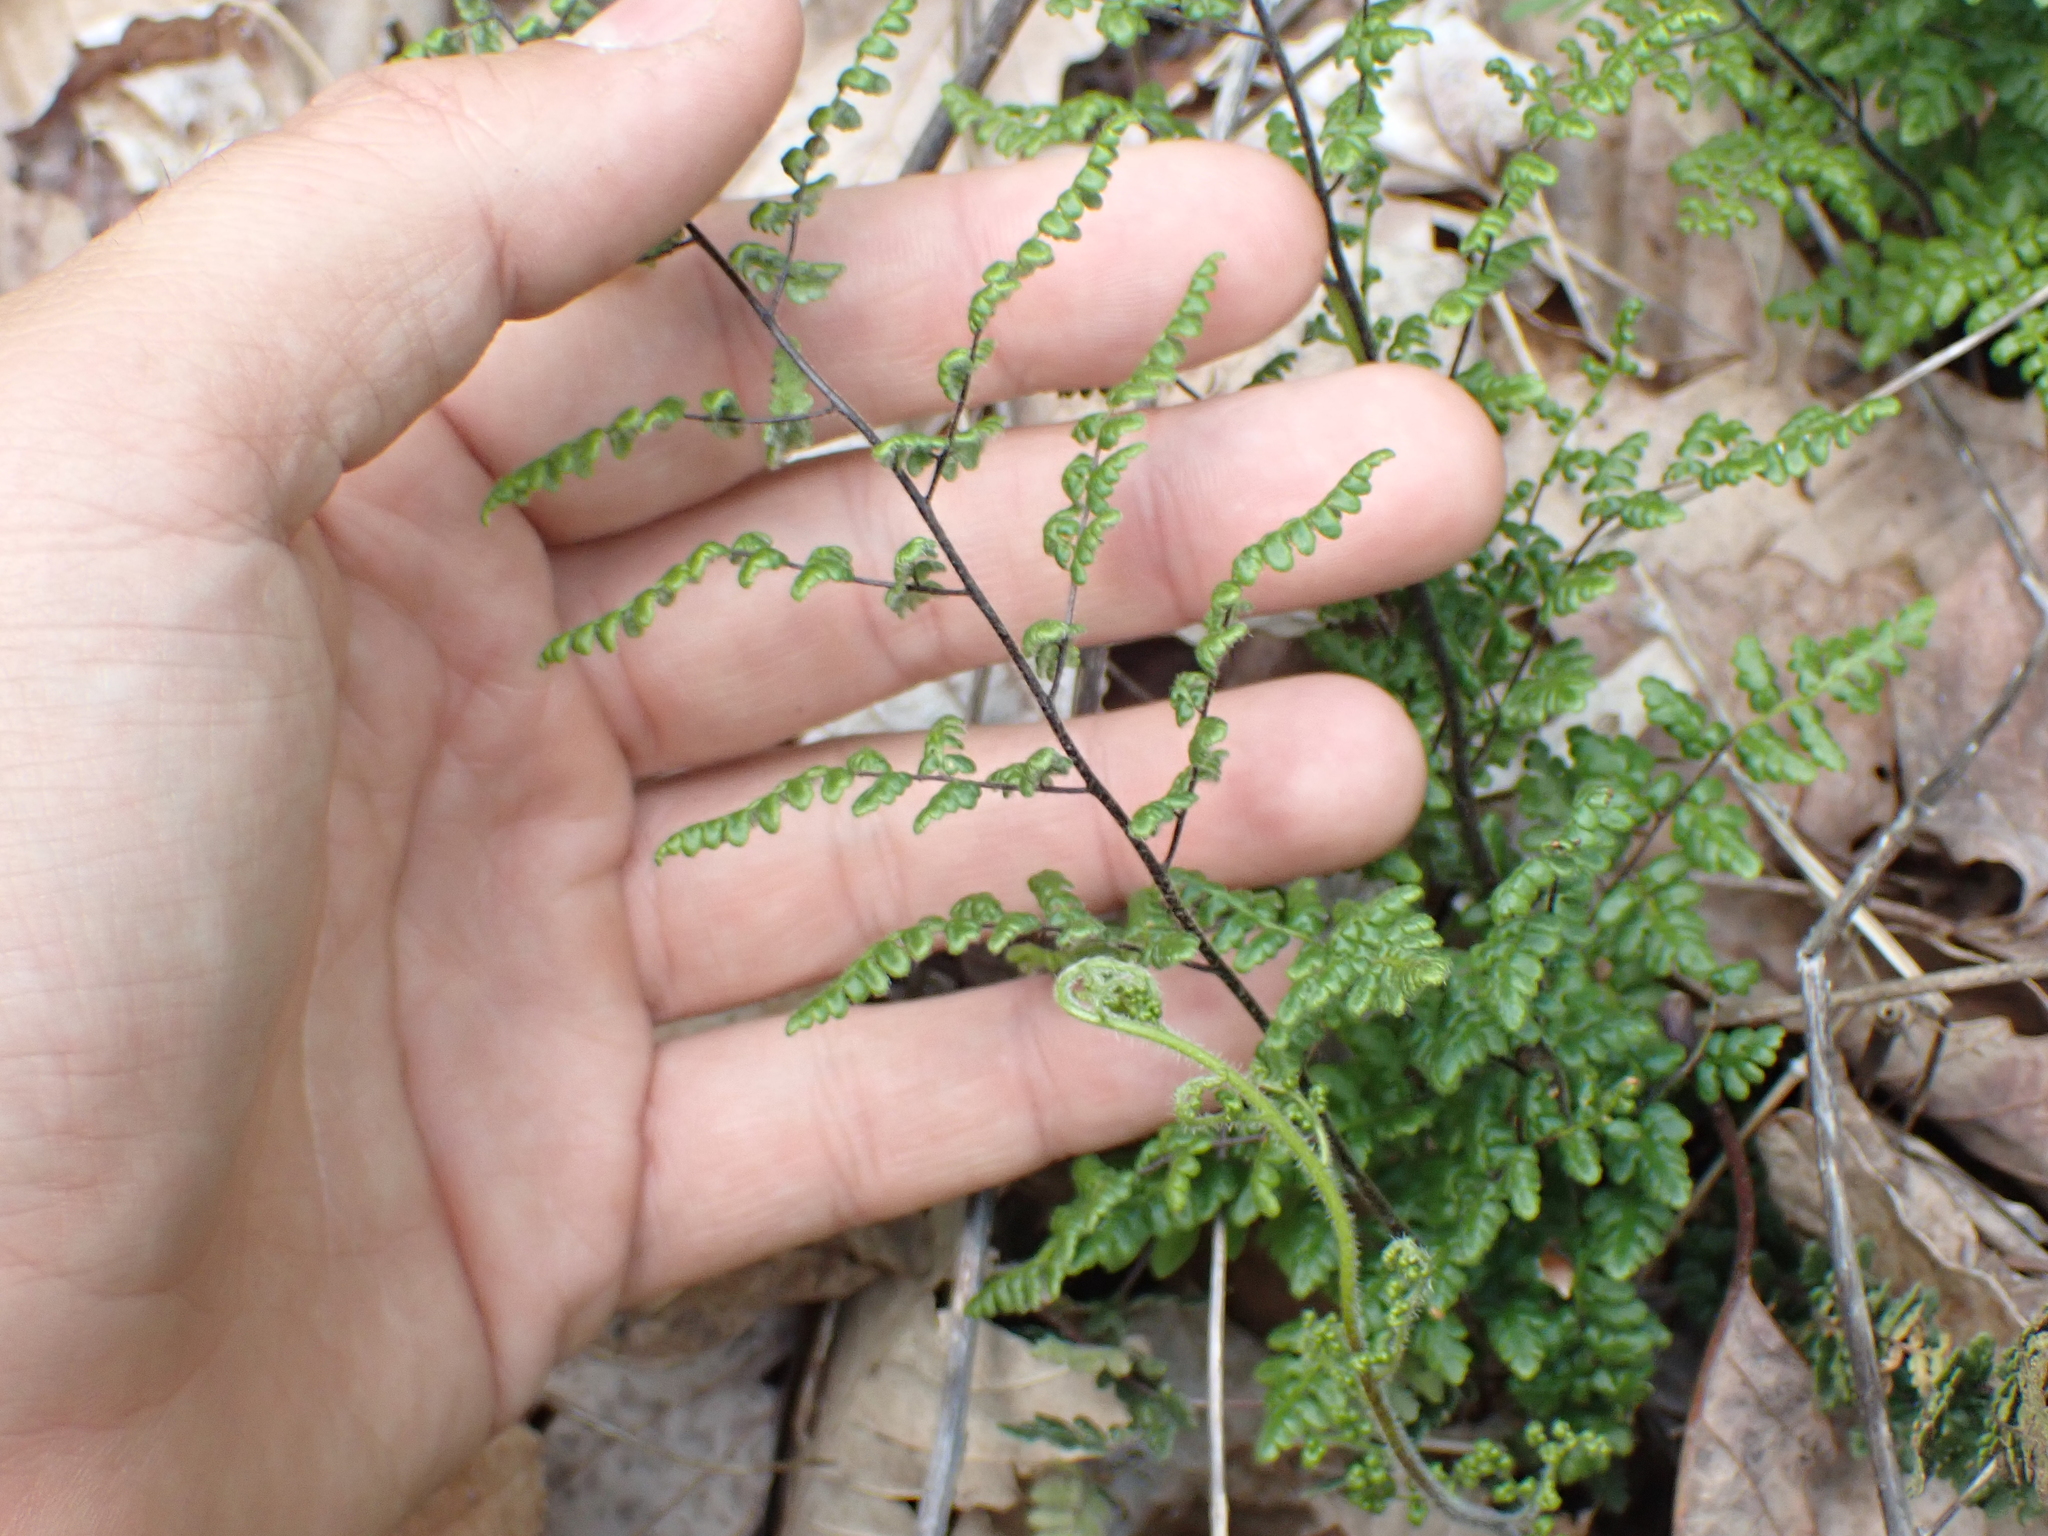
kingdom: Plantae
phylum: Tracheophyta
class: Polypodiopsida
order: Polypodiales
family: Pteridaceae
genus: Myriopteris
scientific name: Myriopteris lanosa
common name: Hairy lip fern
